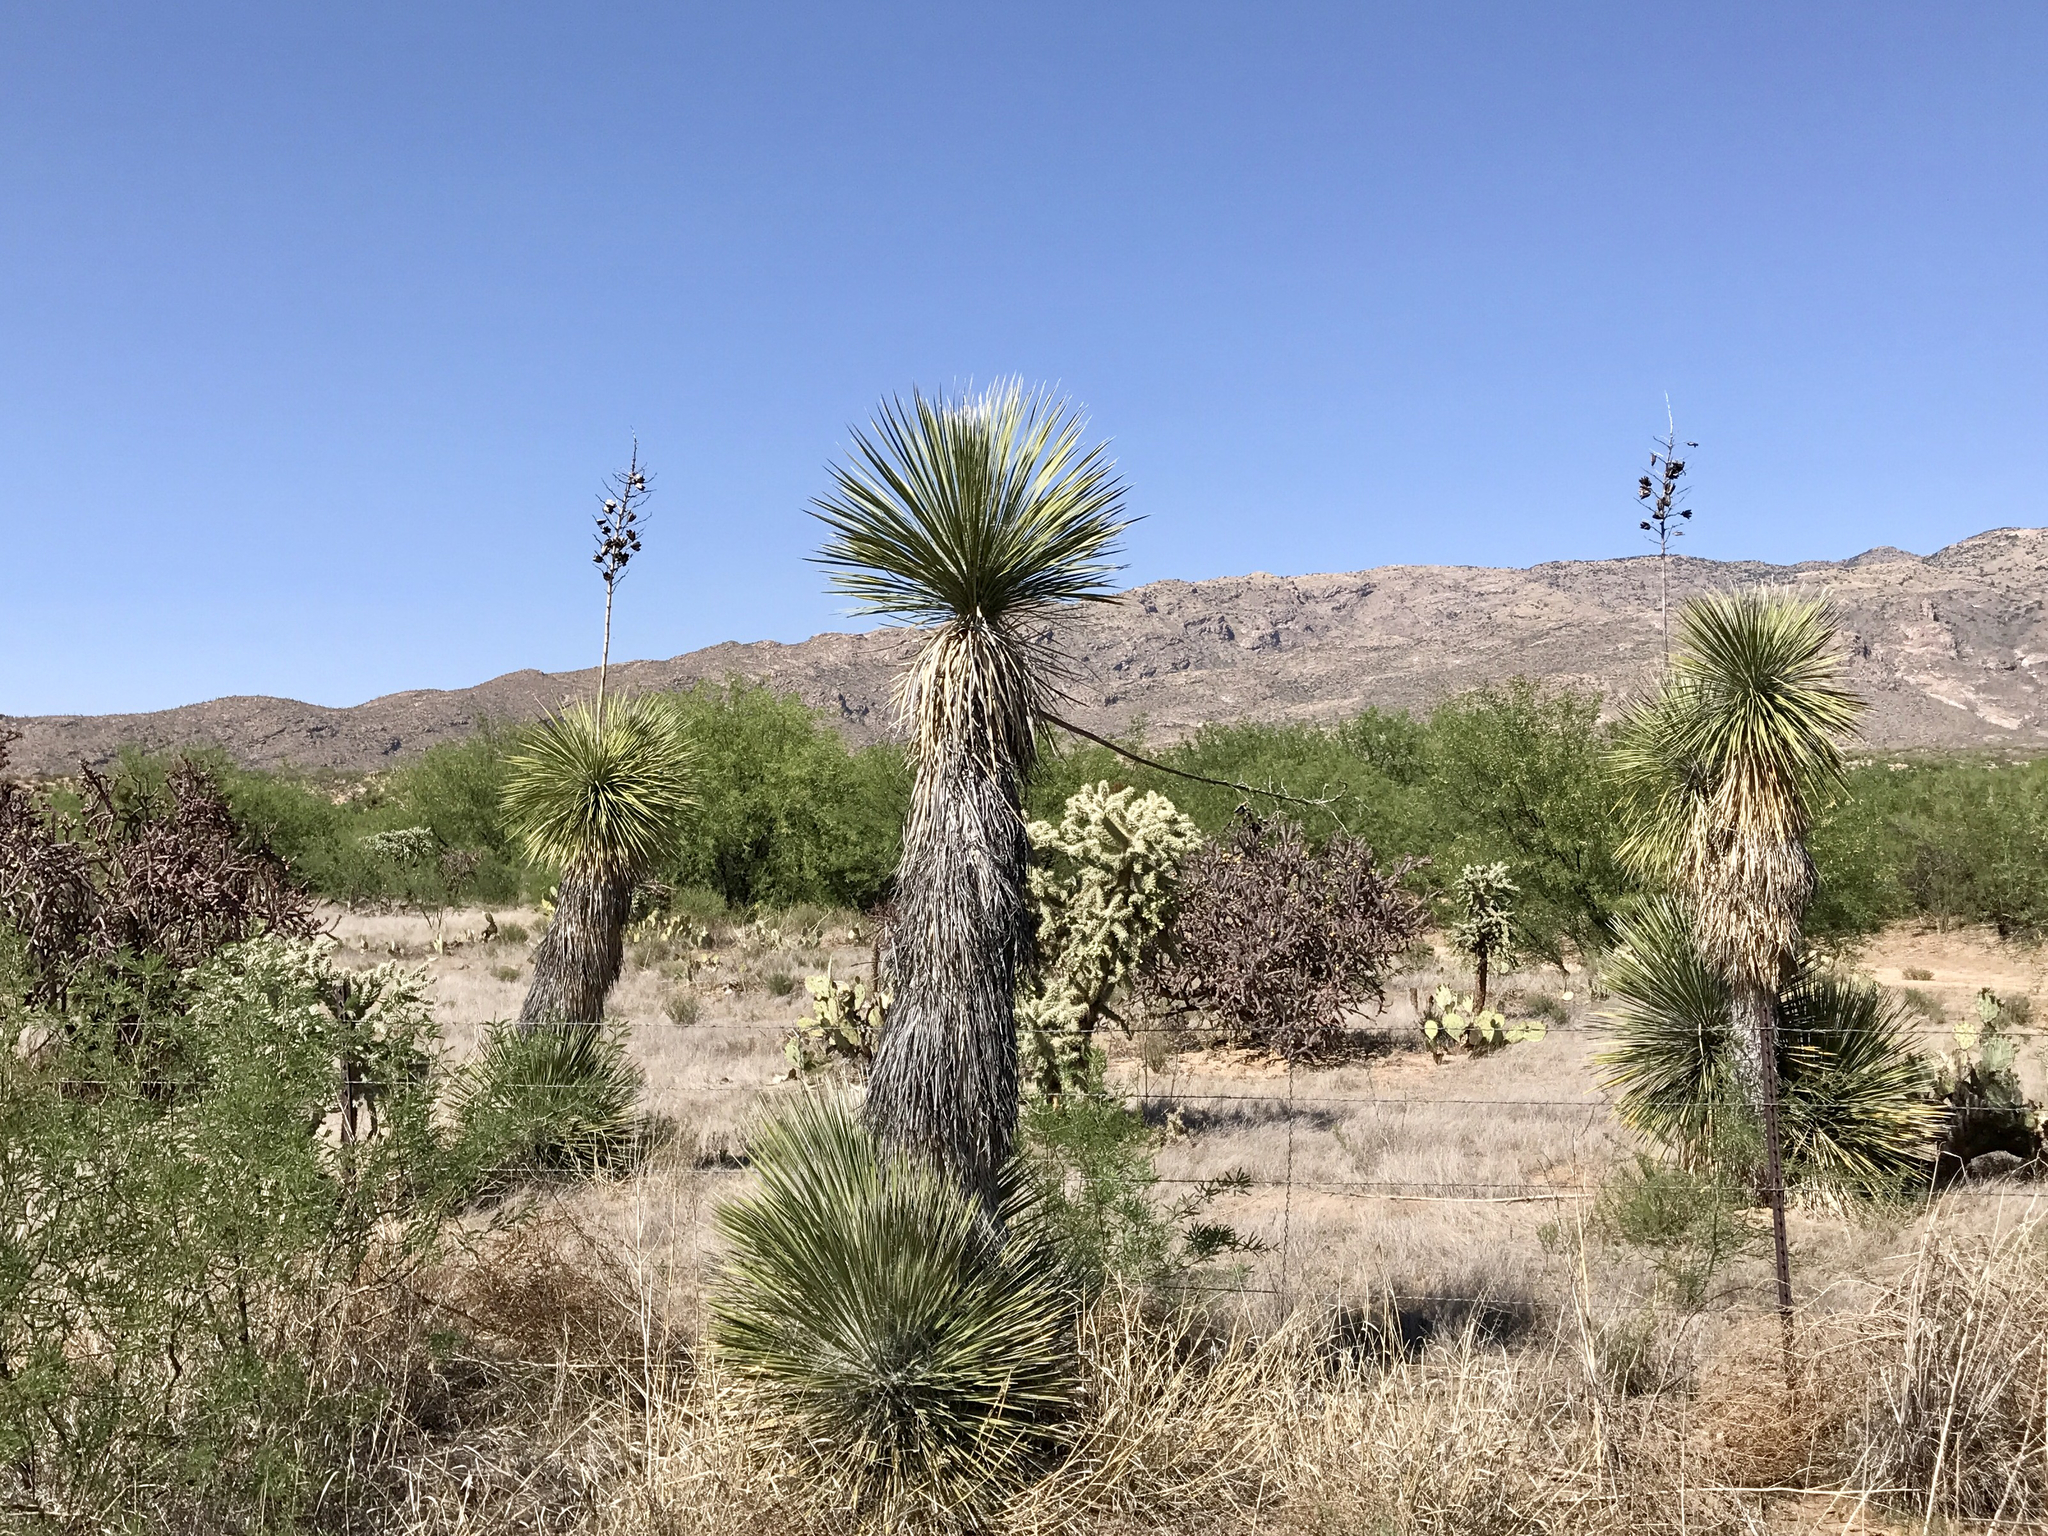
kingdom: Plantae
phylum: Tracheophyta
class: Liliopsida
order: Asparagales
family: Asparagaceae
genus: Yucca
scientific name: Yucca elata
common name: Palmella
